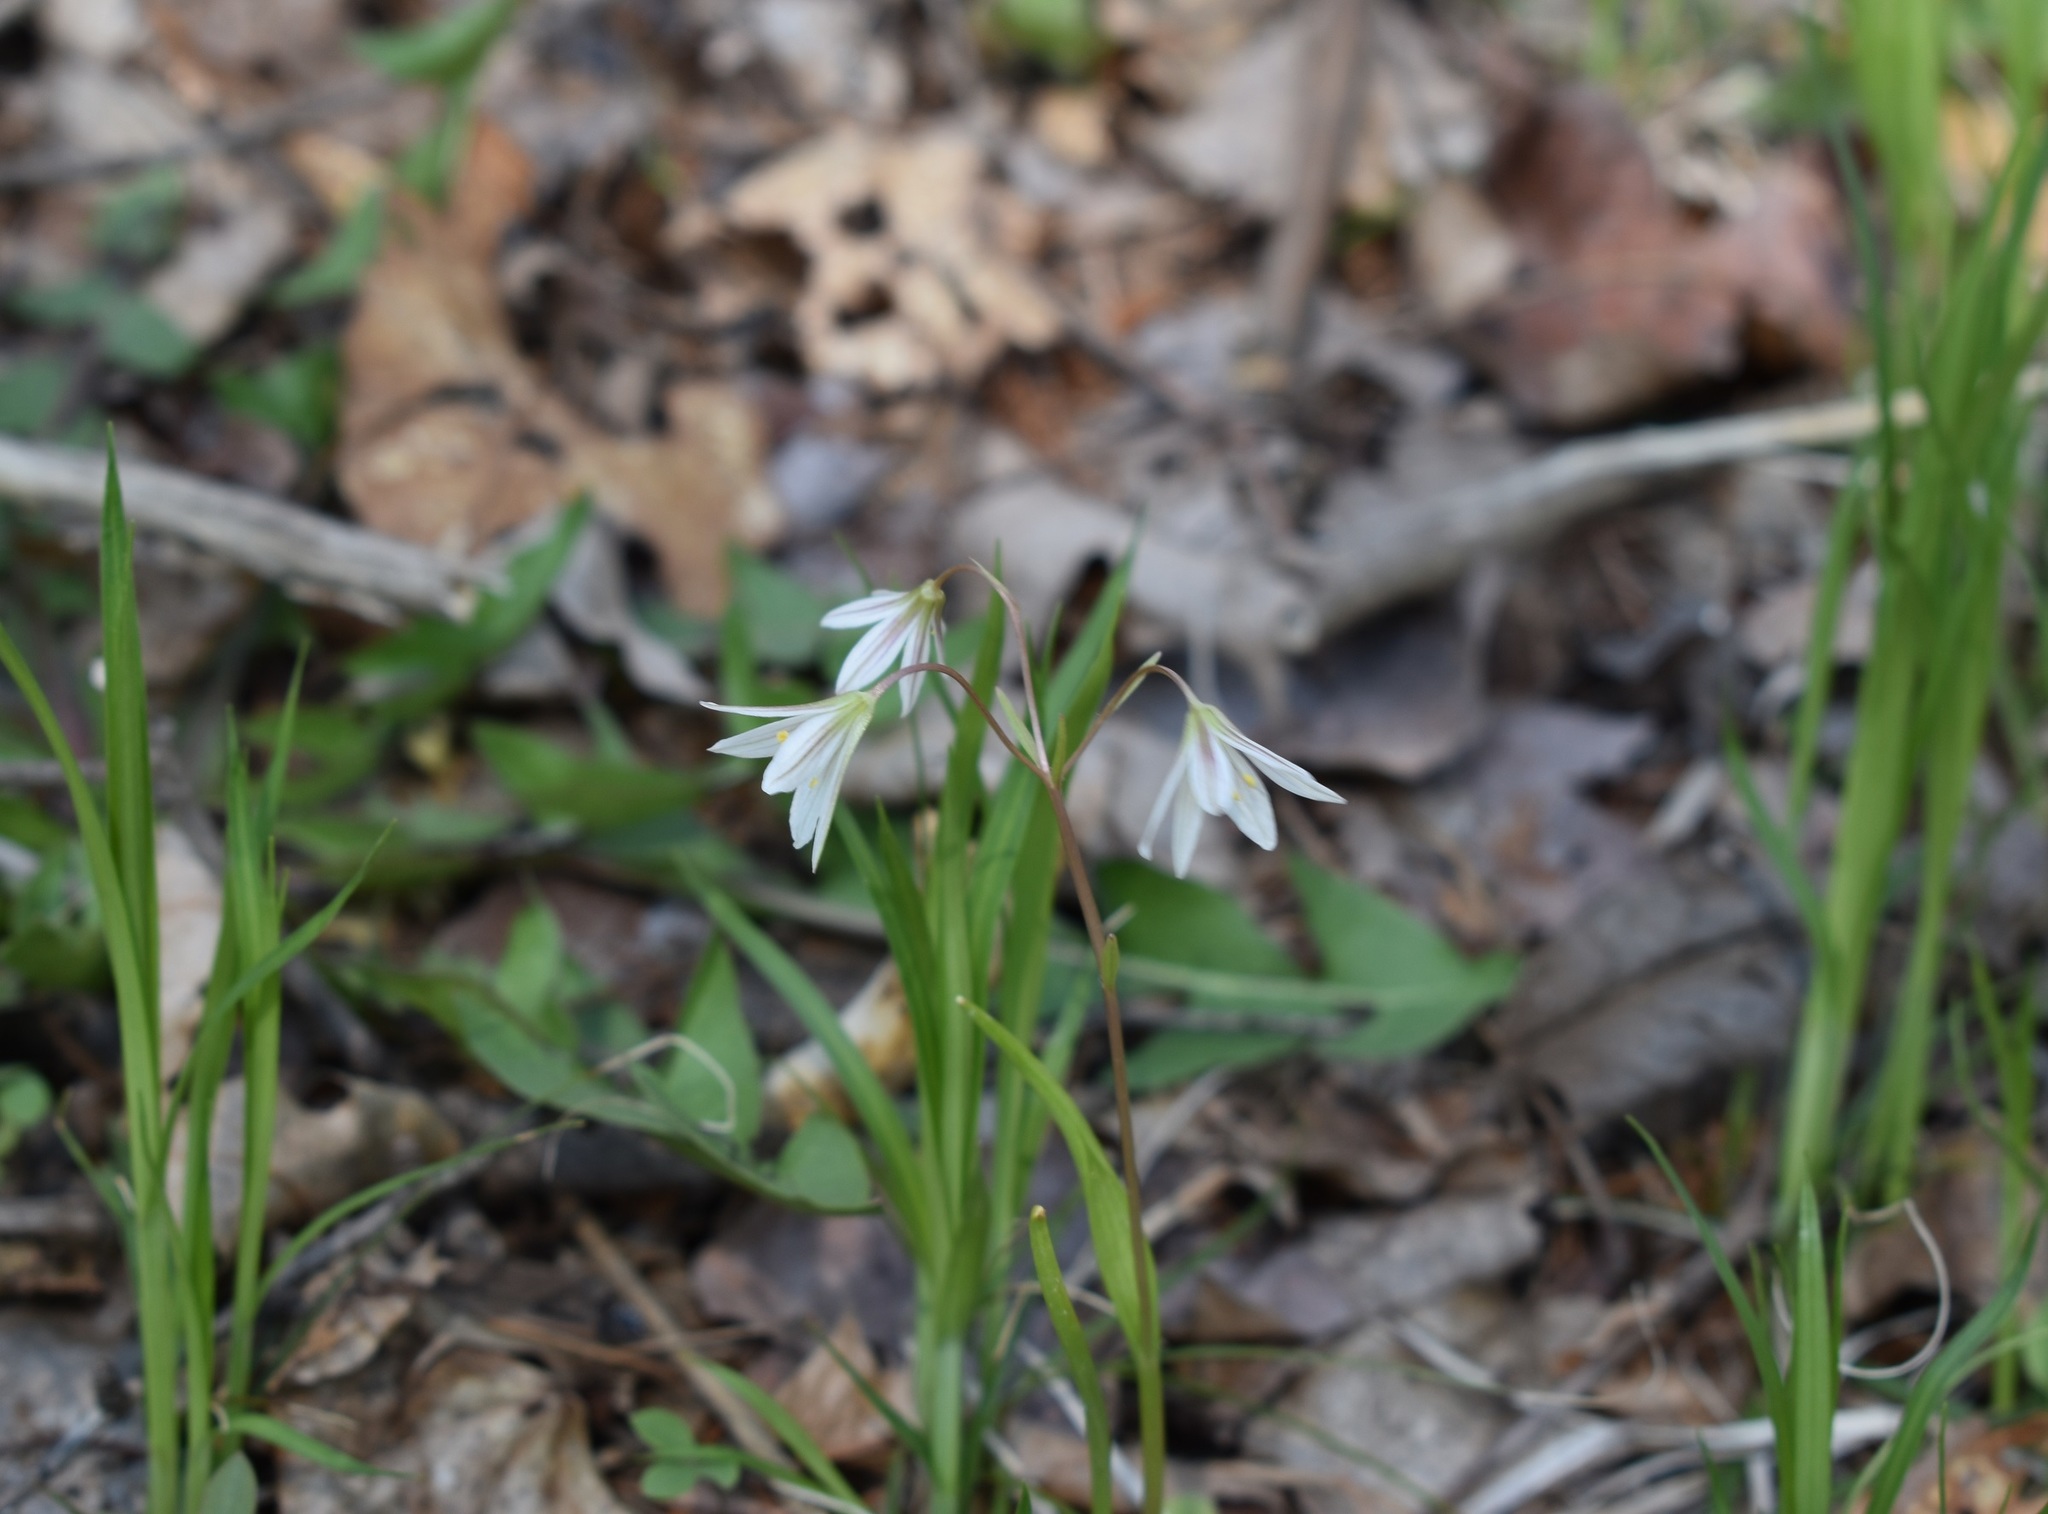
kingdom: Plantae
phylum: Tracheophyta
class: Liliopsida
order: Liliales
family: Liliaceae
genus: Gagea
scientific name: Gagea triflora
